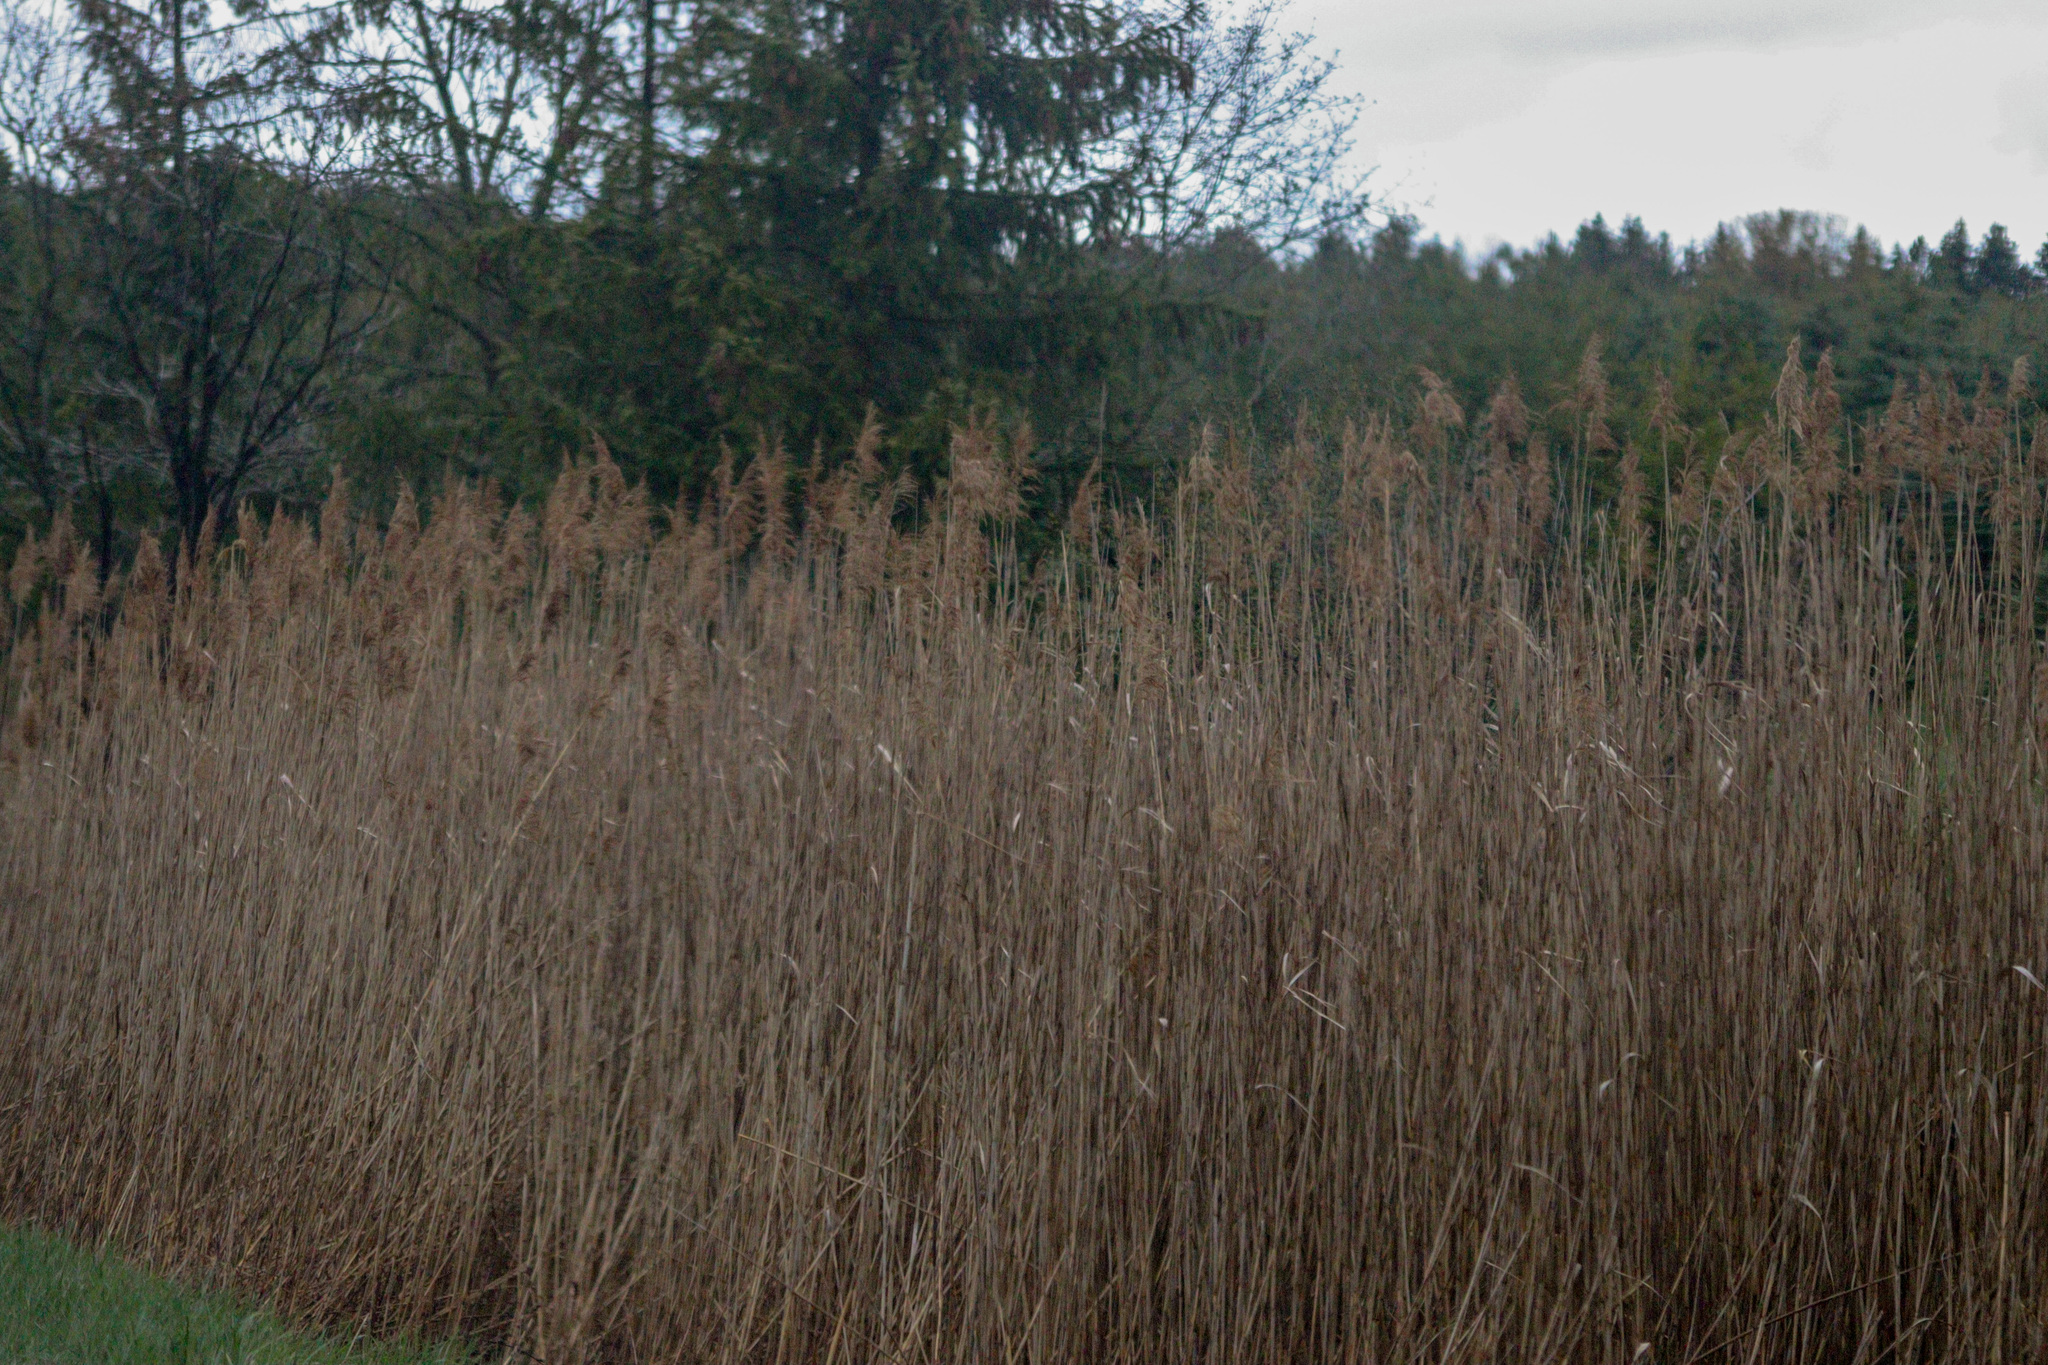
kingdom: Plantae
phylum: Tracheophyta
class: Liliopsida
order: Poales
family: Poaceae
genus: Phragmites
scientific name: Phragmites australis
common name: Common reed
